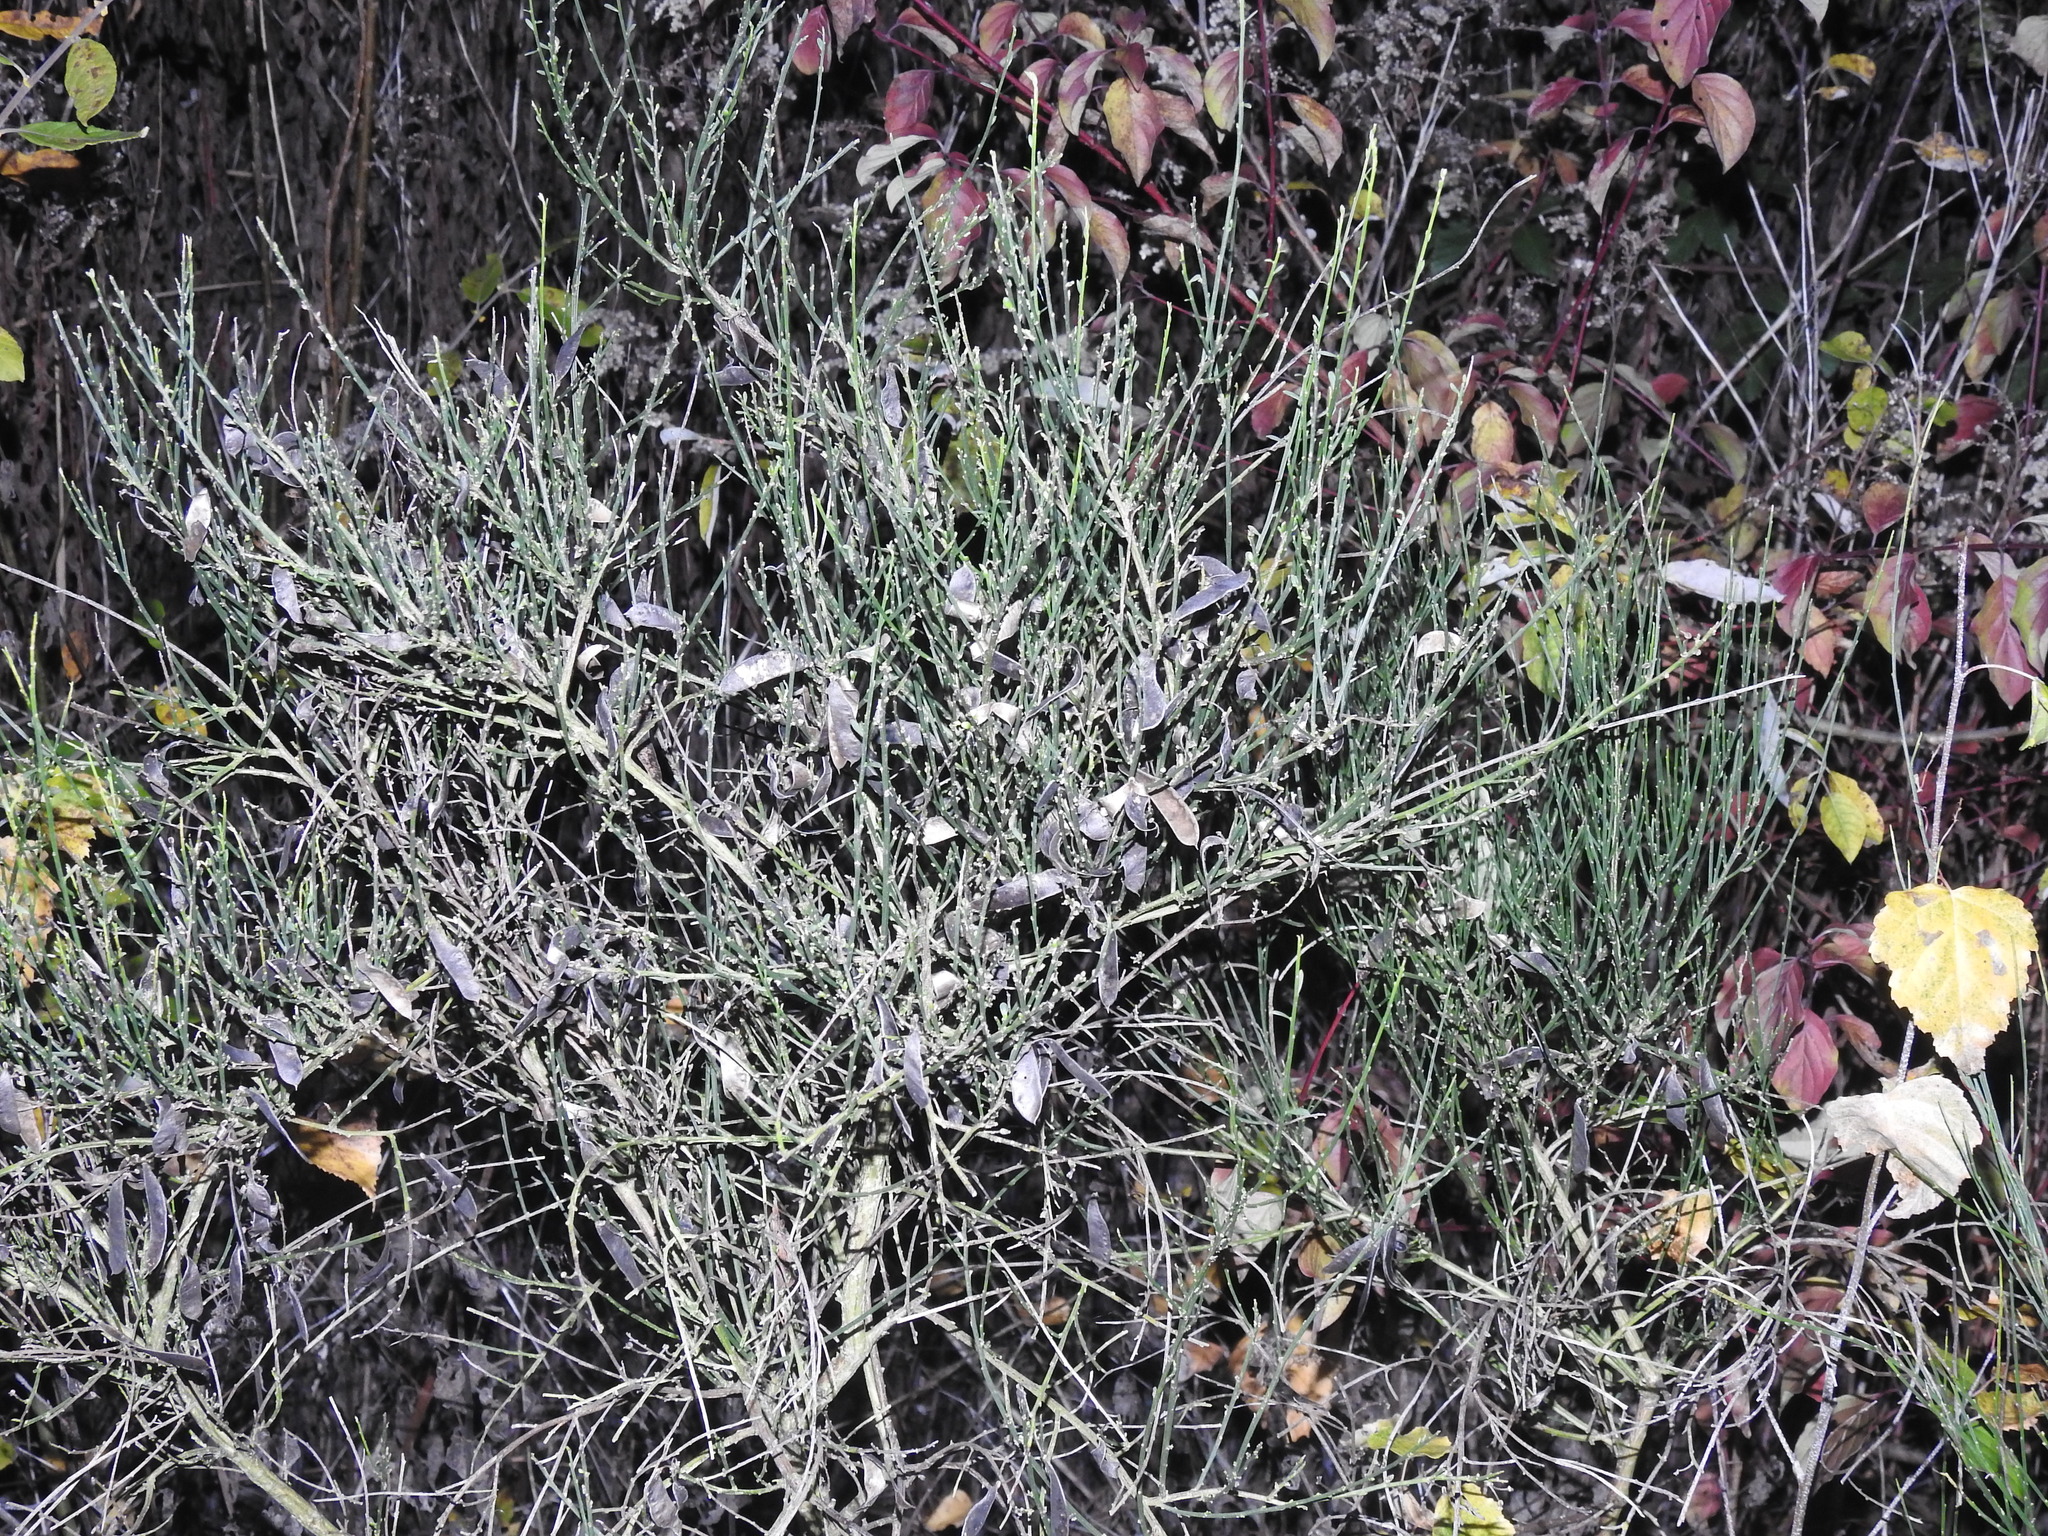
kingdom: Plantae
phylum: Tracheophyta
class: Magnoliopsida
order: Fabales
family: Fabaceae
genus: Cytisus
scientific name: Cytisus scoparius
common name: Scotch broom
